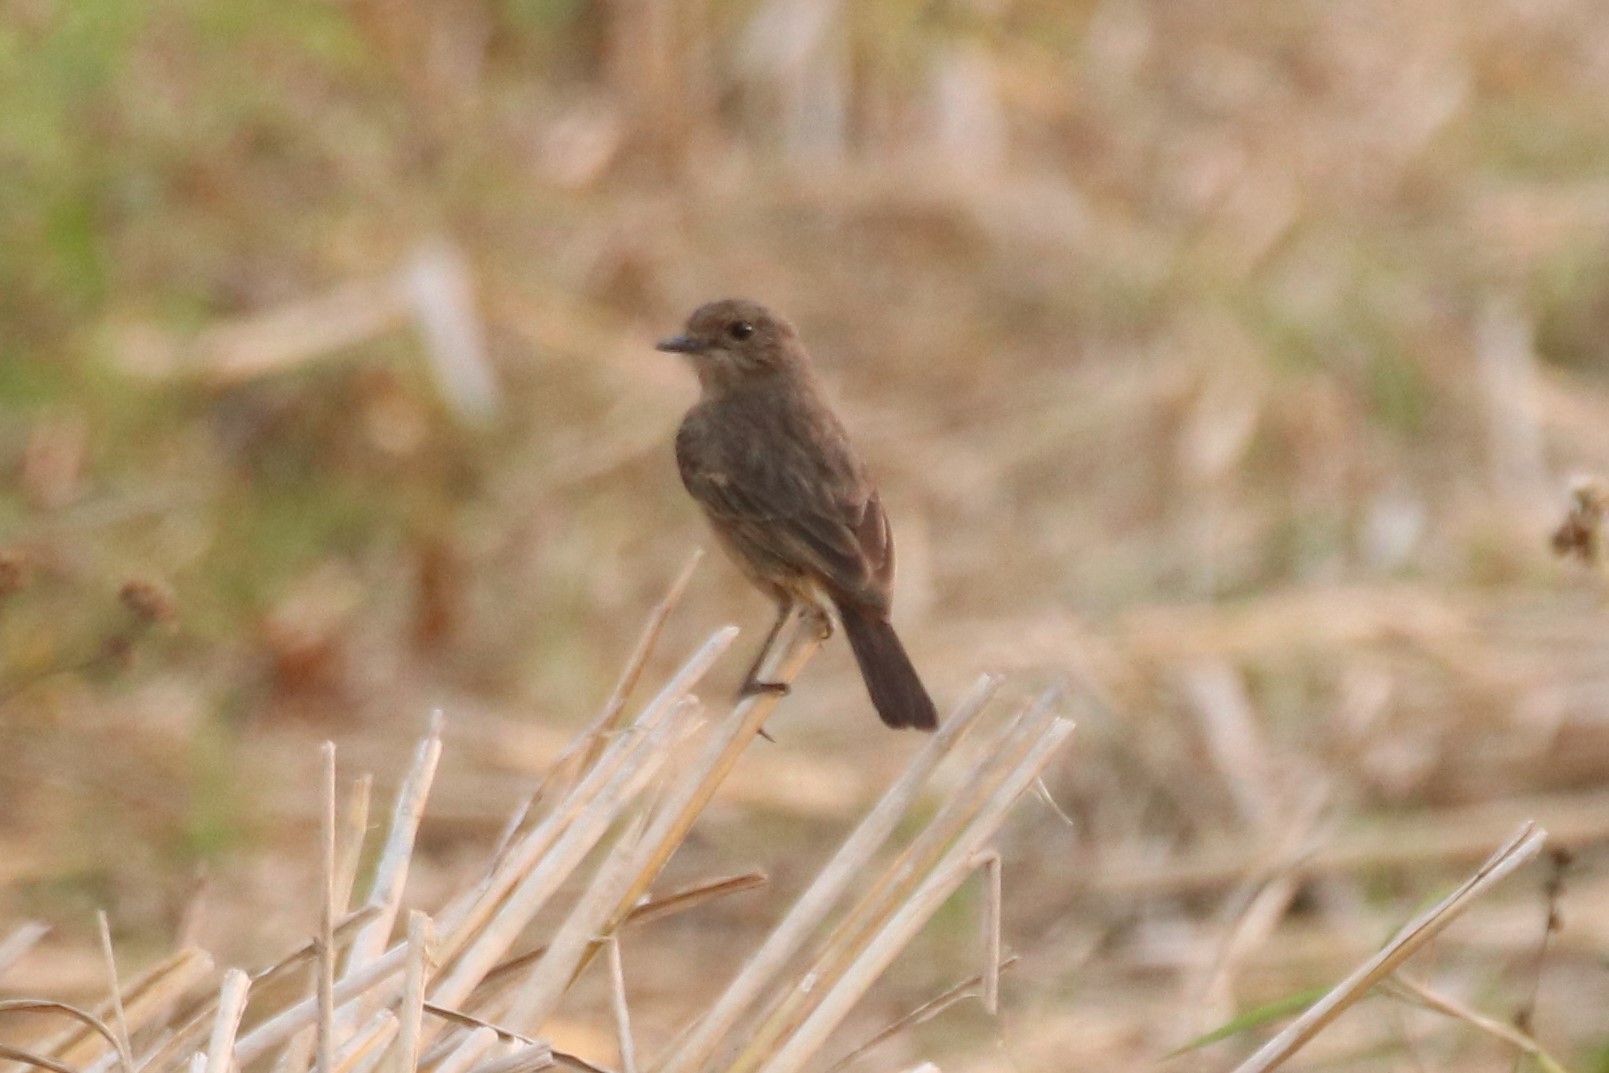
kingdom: Animalia
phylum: Chordata
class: Aves
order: Passeriformes
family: Muscicapidae
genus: Saxicola
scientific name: Saxicola caprata
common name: Pied bush chat
